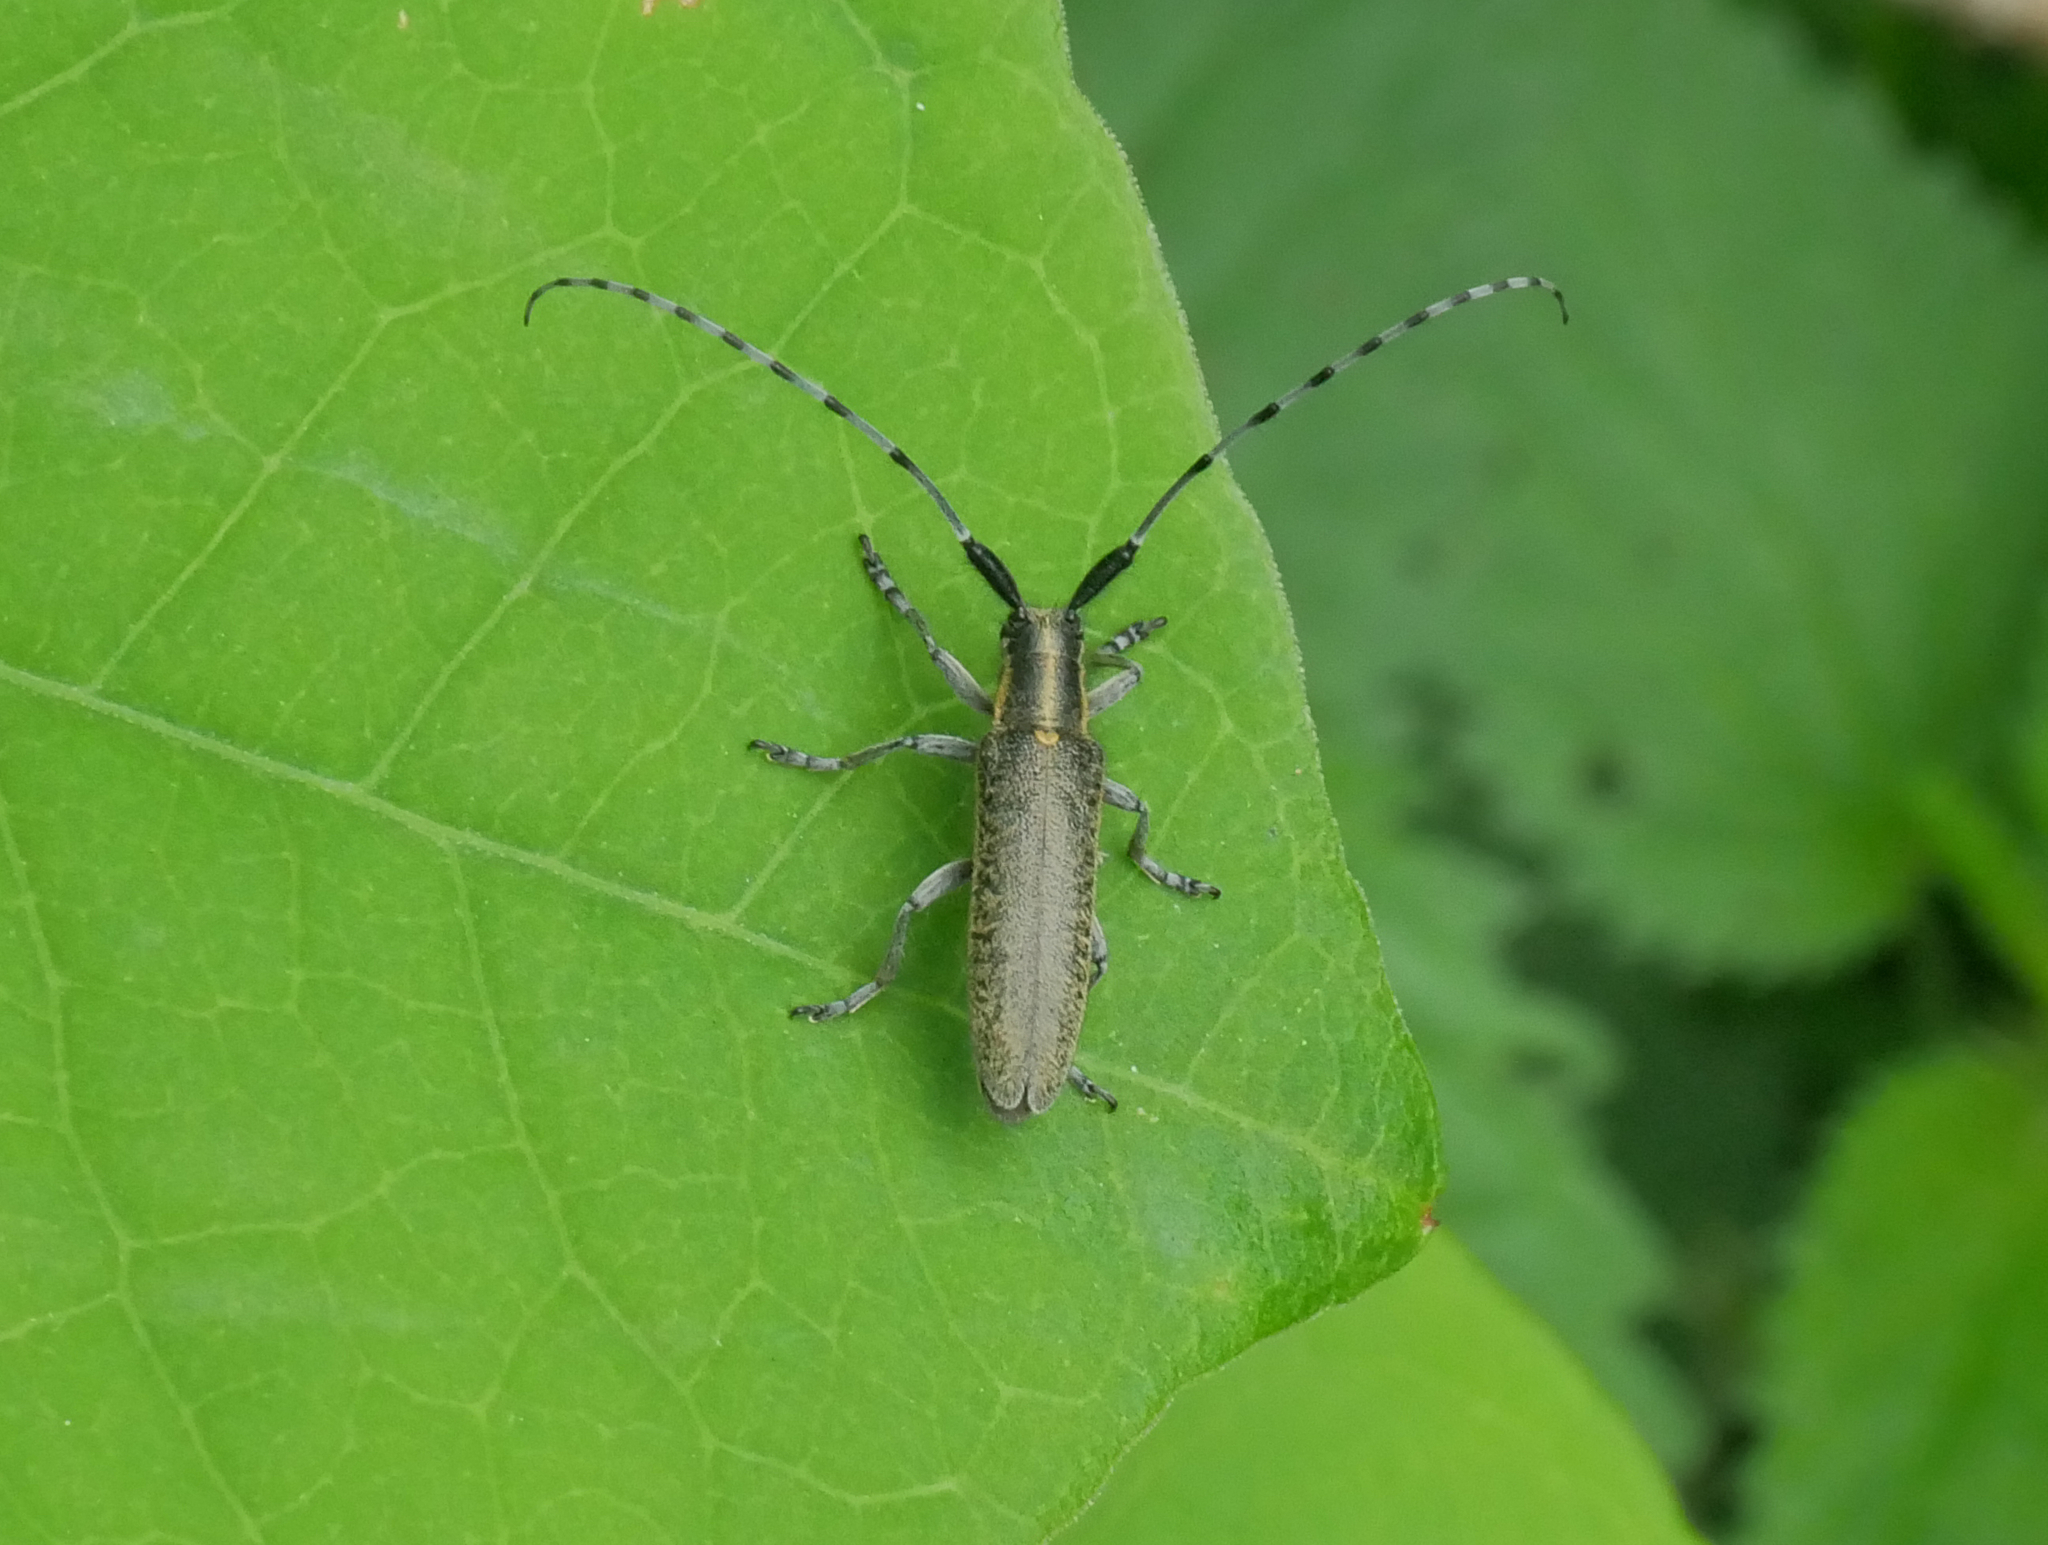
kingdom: Animalia
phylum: Arthropoda
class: Insecta
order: Coleoptera
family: Cerambycidae
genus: Agapanthia
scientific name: Agapanthia villosoviridescens
